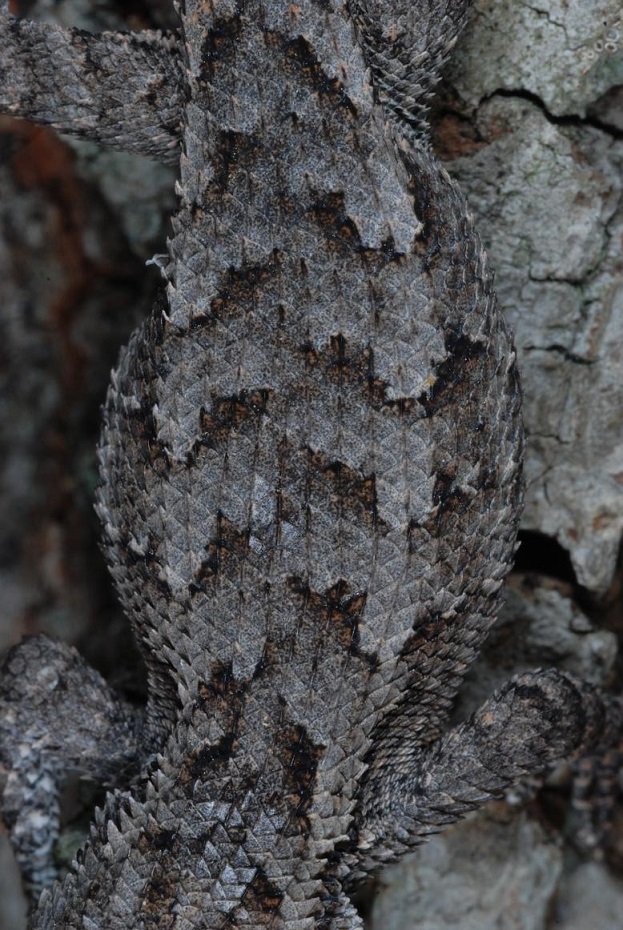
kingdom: Animalia
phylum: Chordata
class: Squamata
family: Phrynosomatidae
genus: Sceloporus
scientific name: Sceloporus undulatus
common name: Eastern fence lizard
